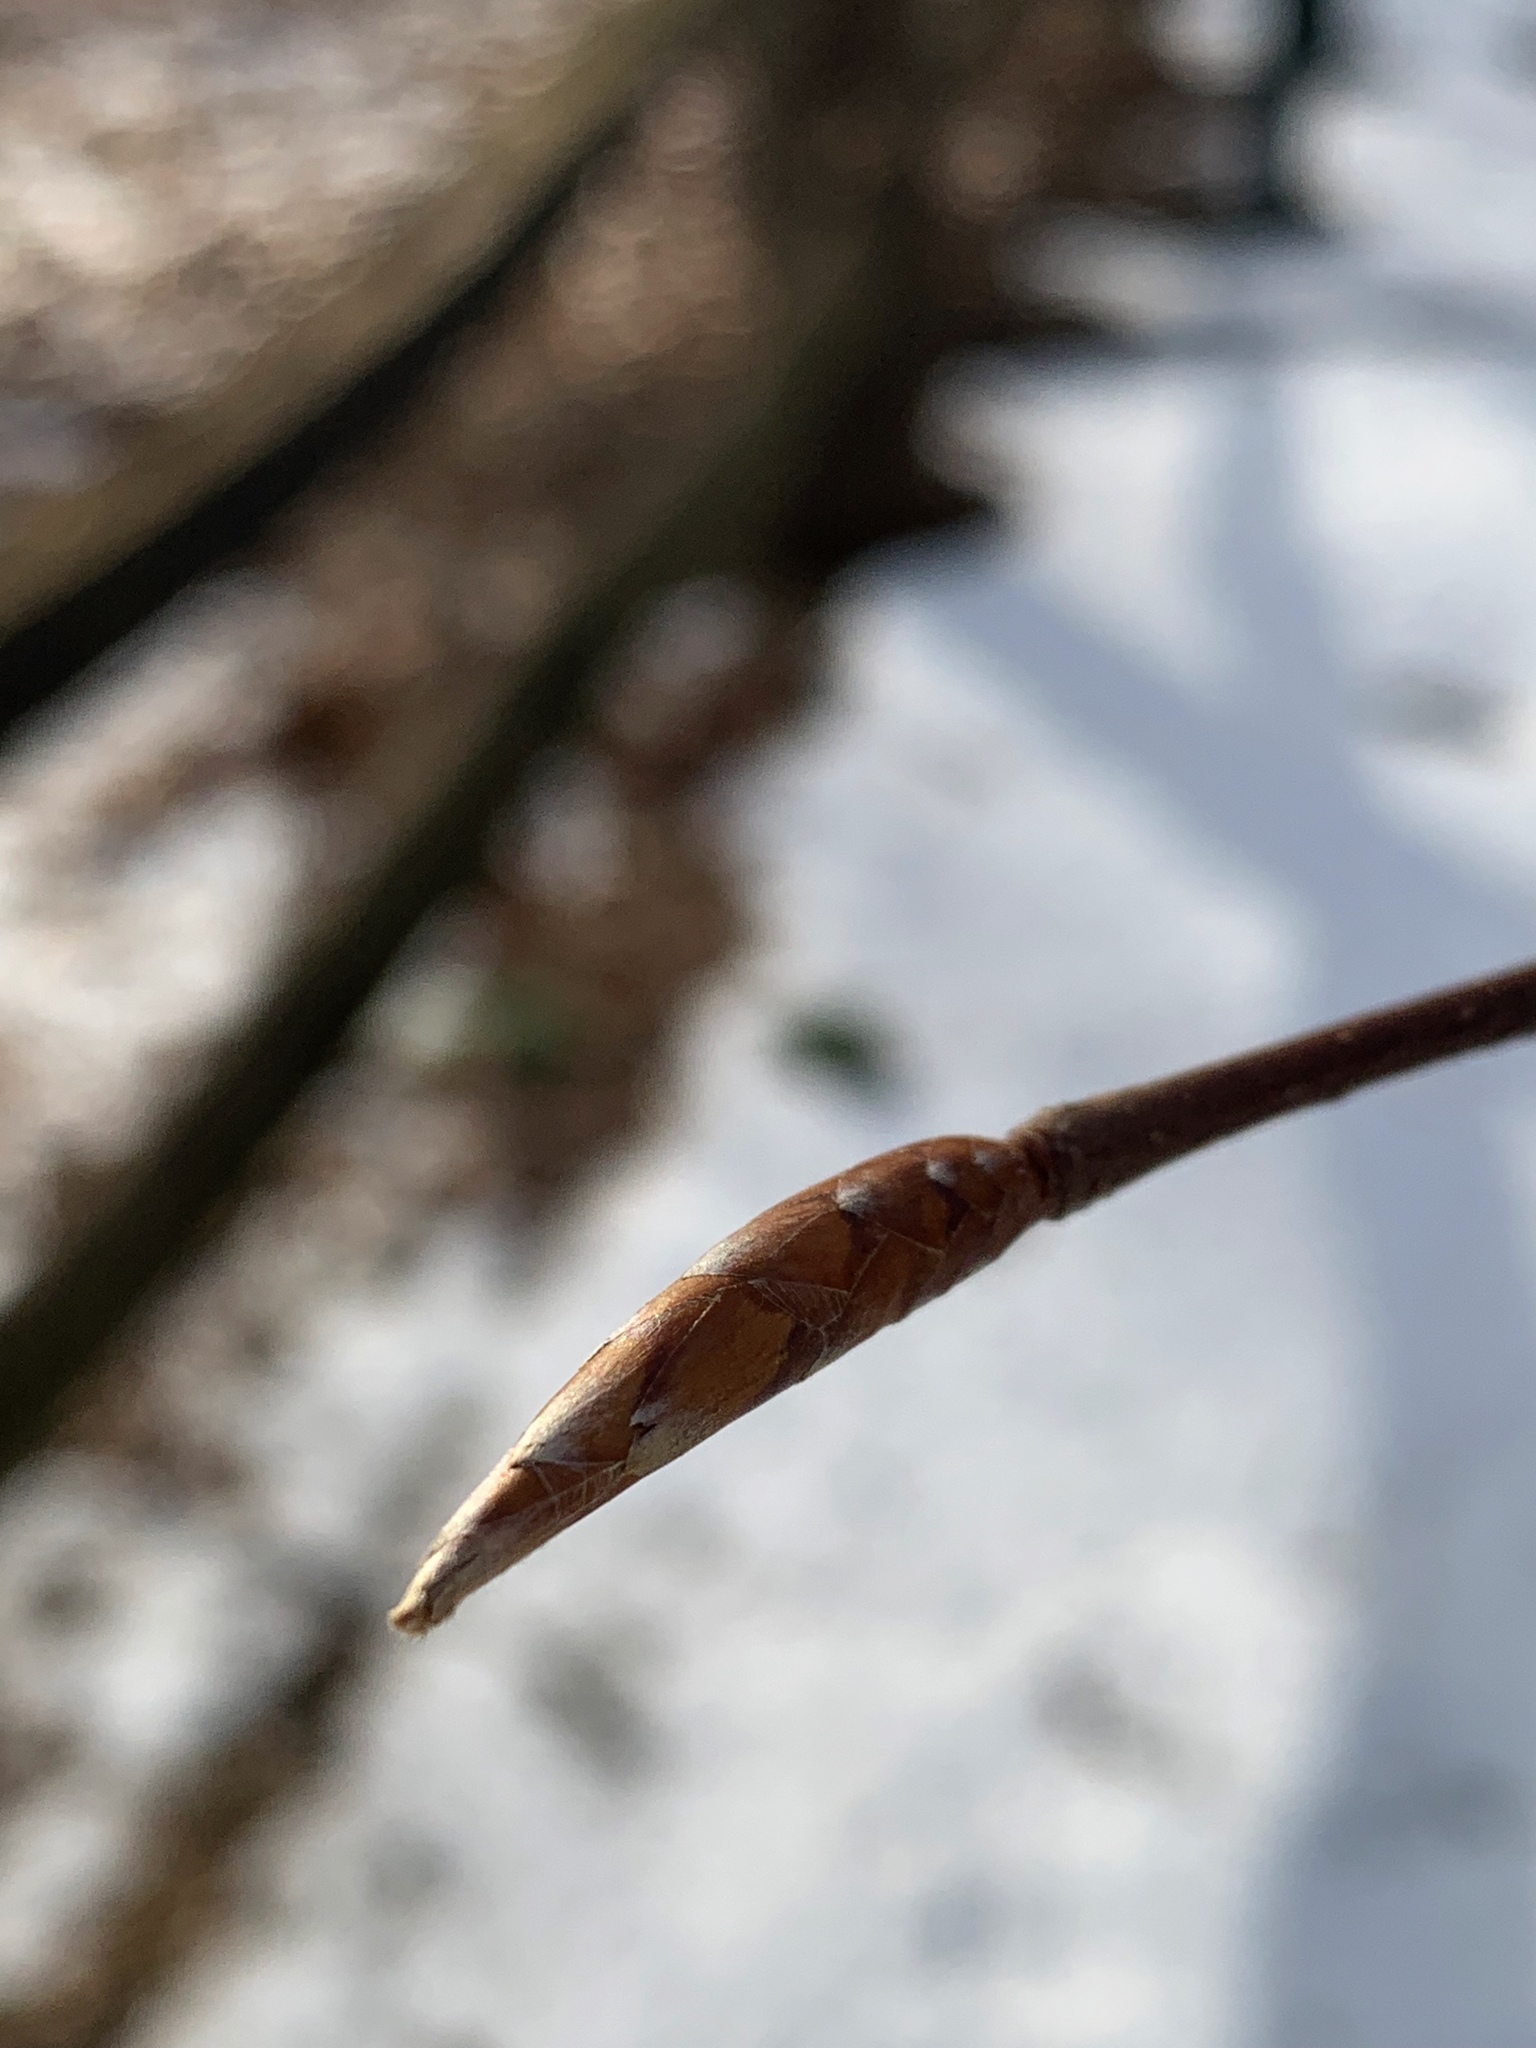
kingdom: Plantae
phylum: Tracheophyta
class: Magnoliopsida
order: Fagales
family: Fagaceae
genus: Fagus
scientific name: Fagus grandifolia
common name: American beech
